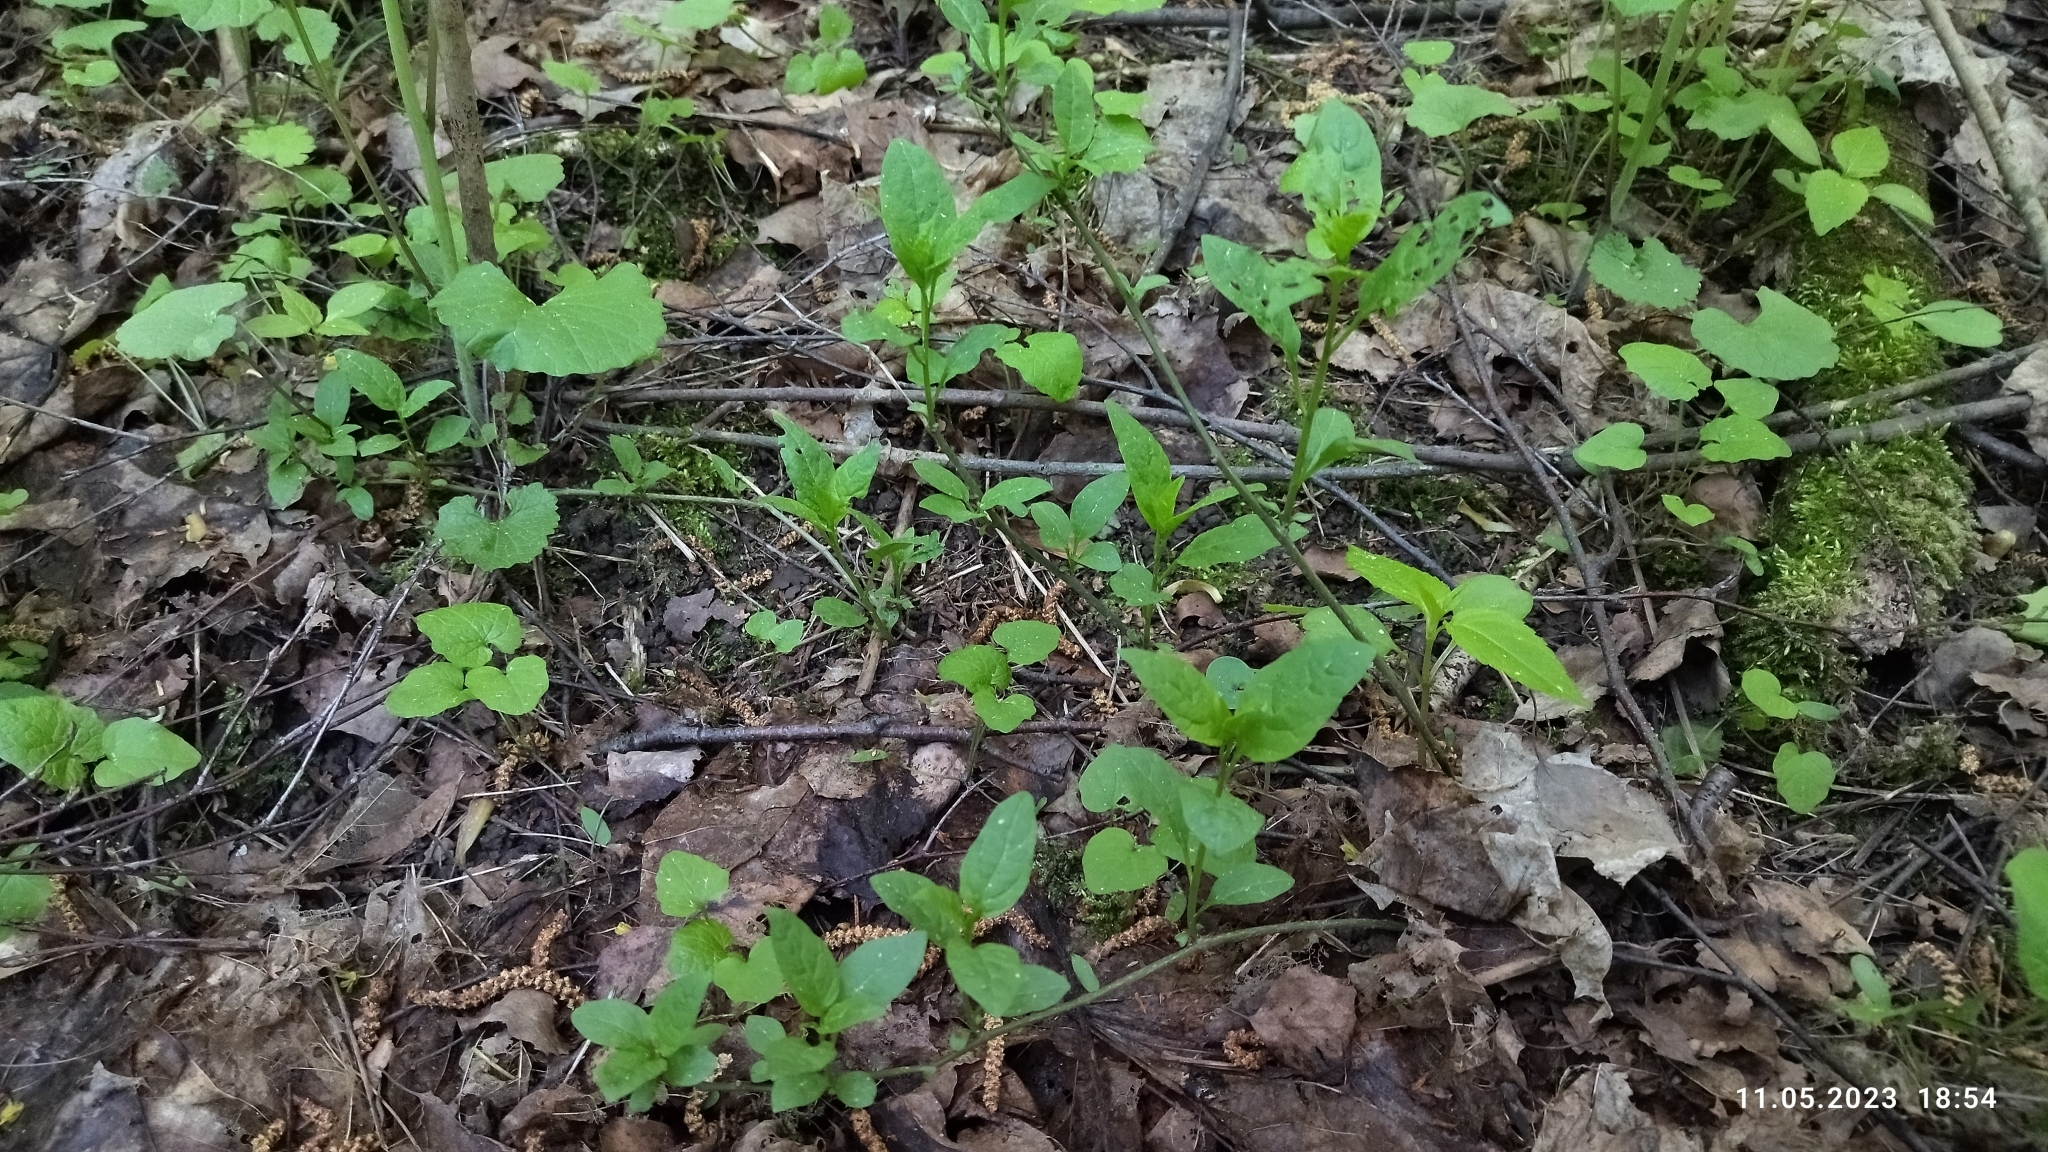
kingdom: Plantae
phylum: Tracheophyta
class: Magnoliopsida
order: Solanales
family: Solanaceae
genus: Solanum
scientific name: Solanum dulcamara
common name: Climbing nightshade
